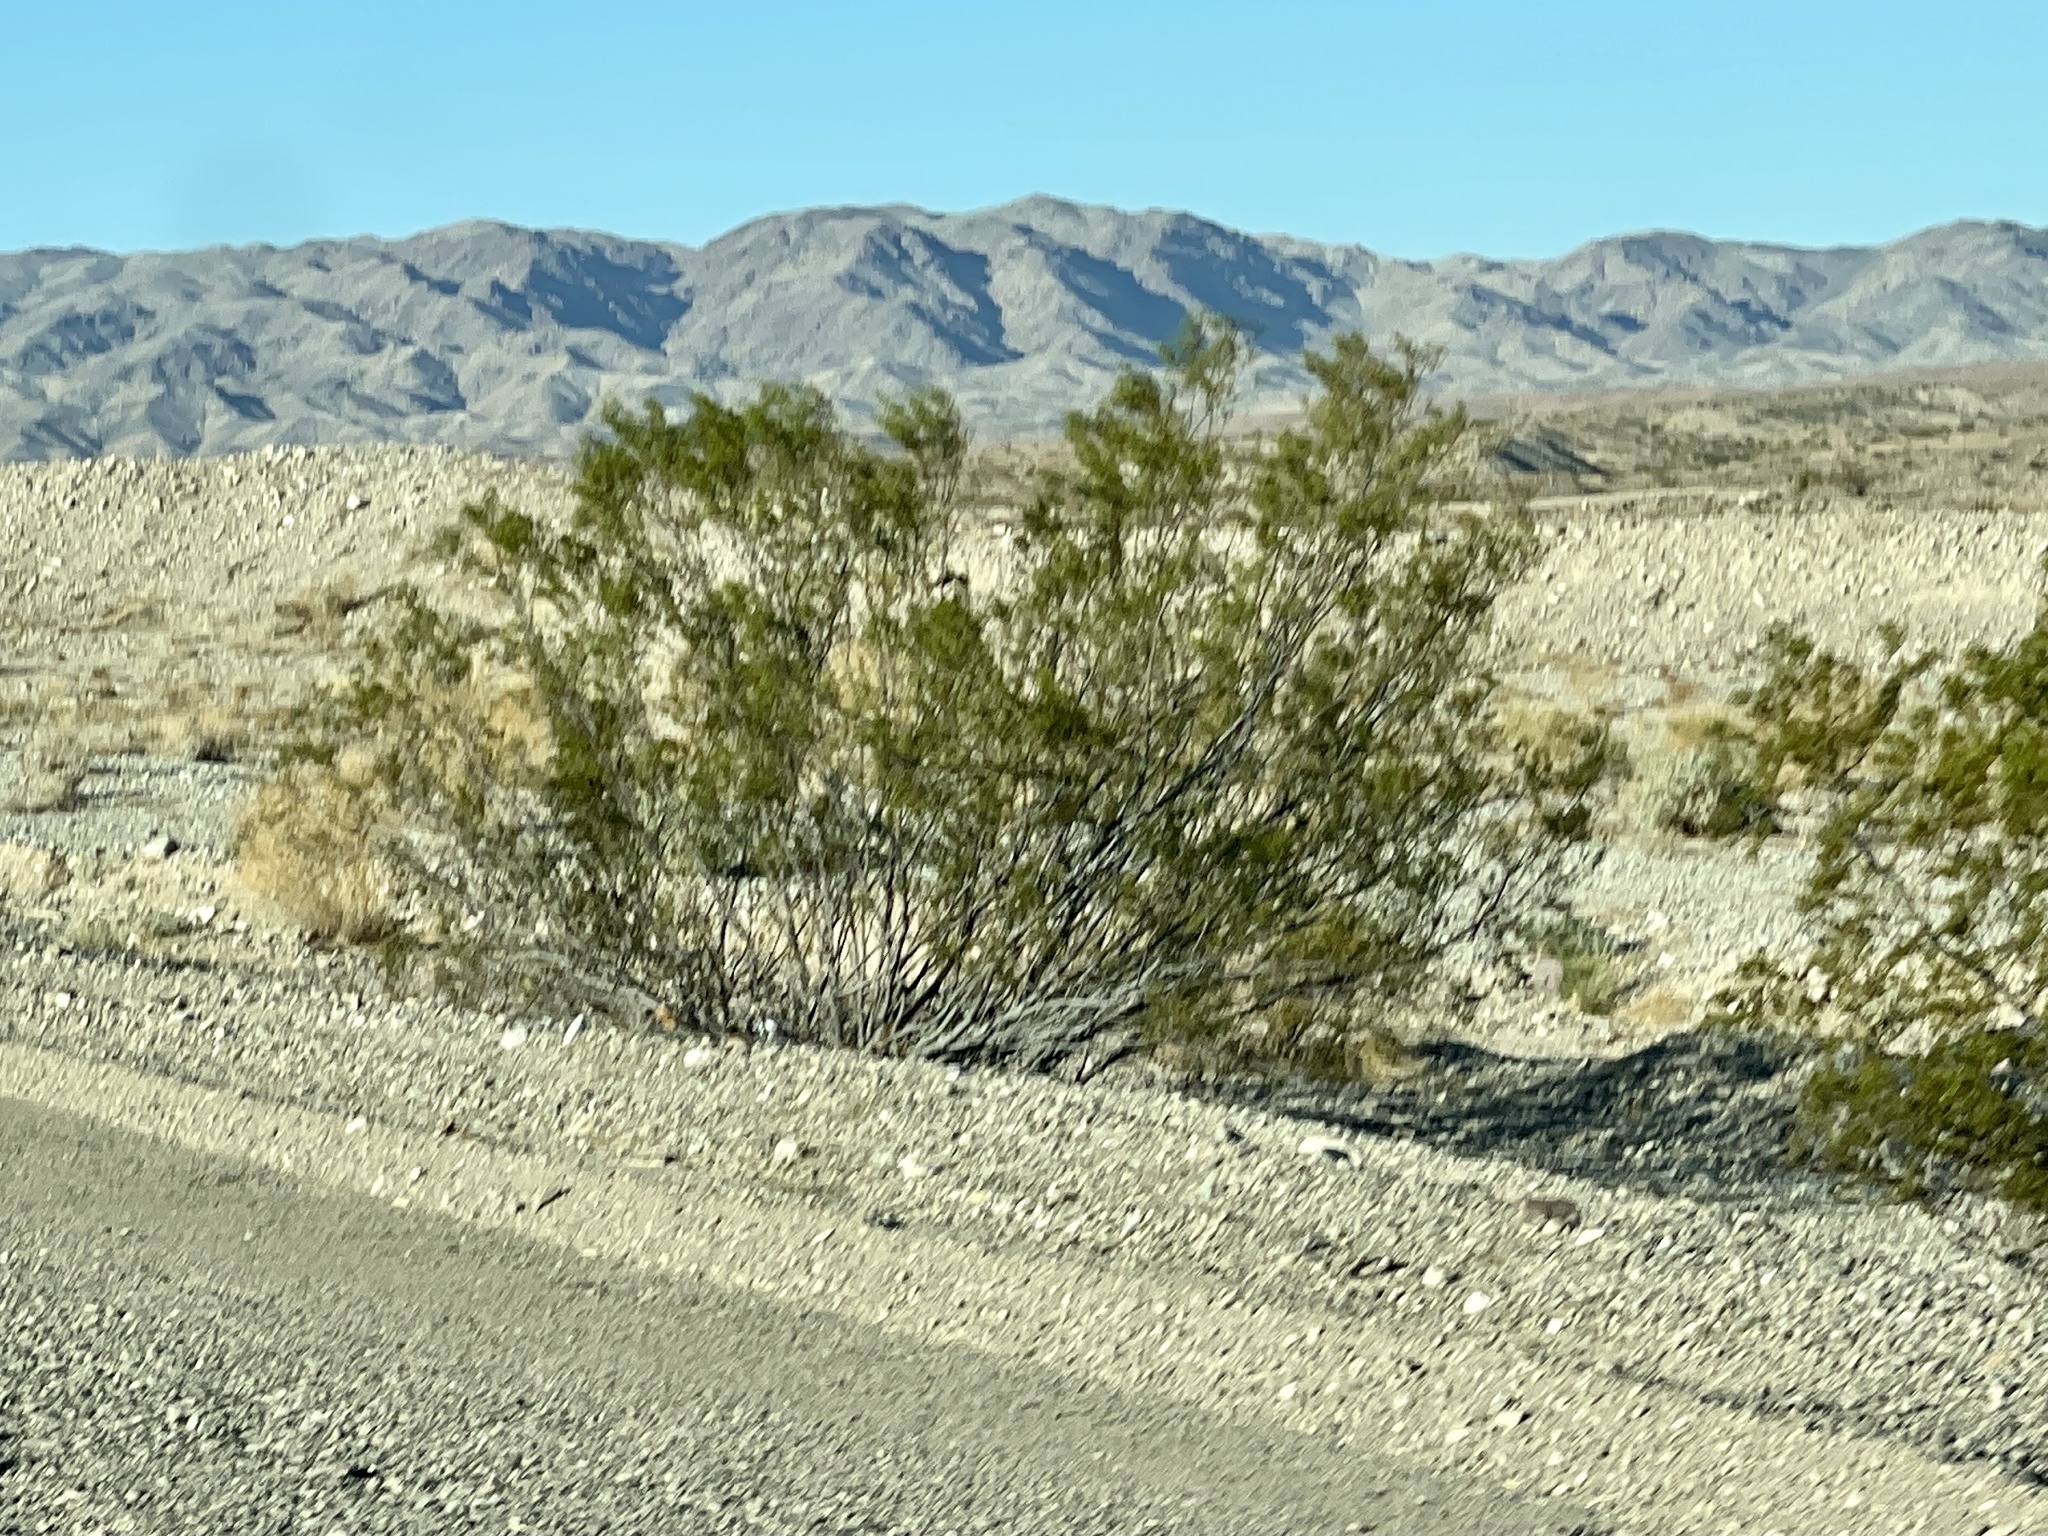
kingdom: Plantae
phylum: Tracheophyta
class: Magnoliopsida
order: Zygophyllales
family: Zygophyllaceae
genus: Larrea
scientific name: Larrea tridentata
